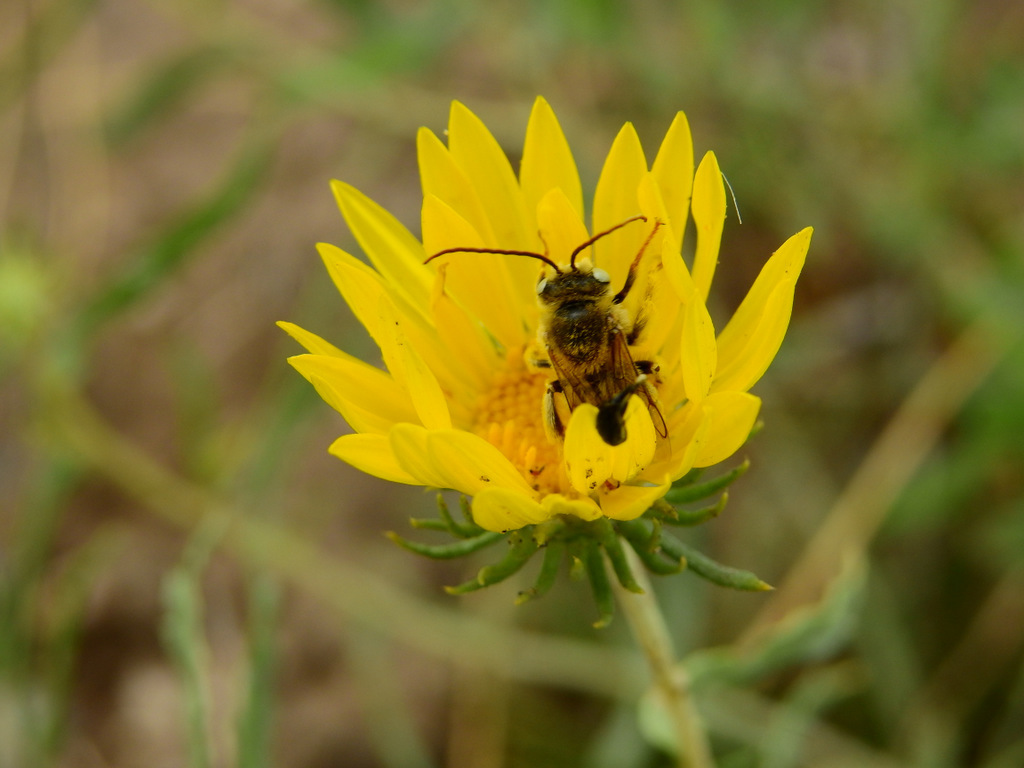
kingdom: Plantae
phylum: Tracheophyta
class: Magnoliopsida
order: Asterales
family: Asteraceae
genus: Grindelia
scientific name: Grindelia pulchella
